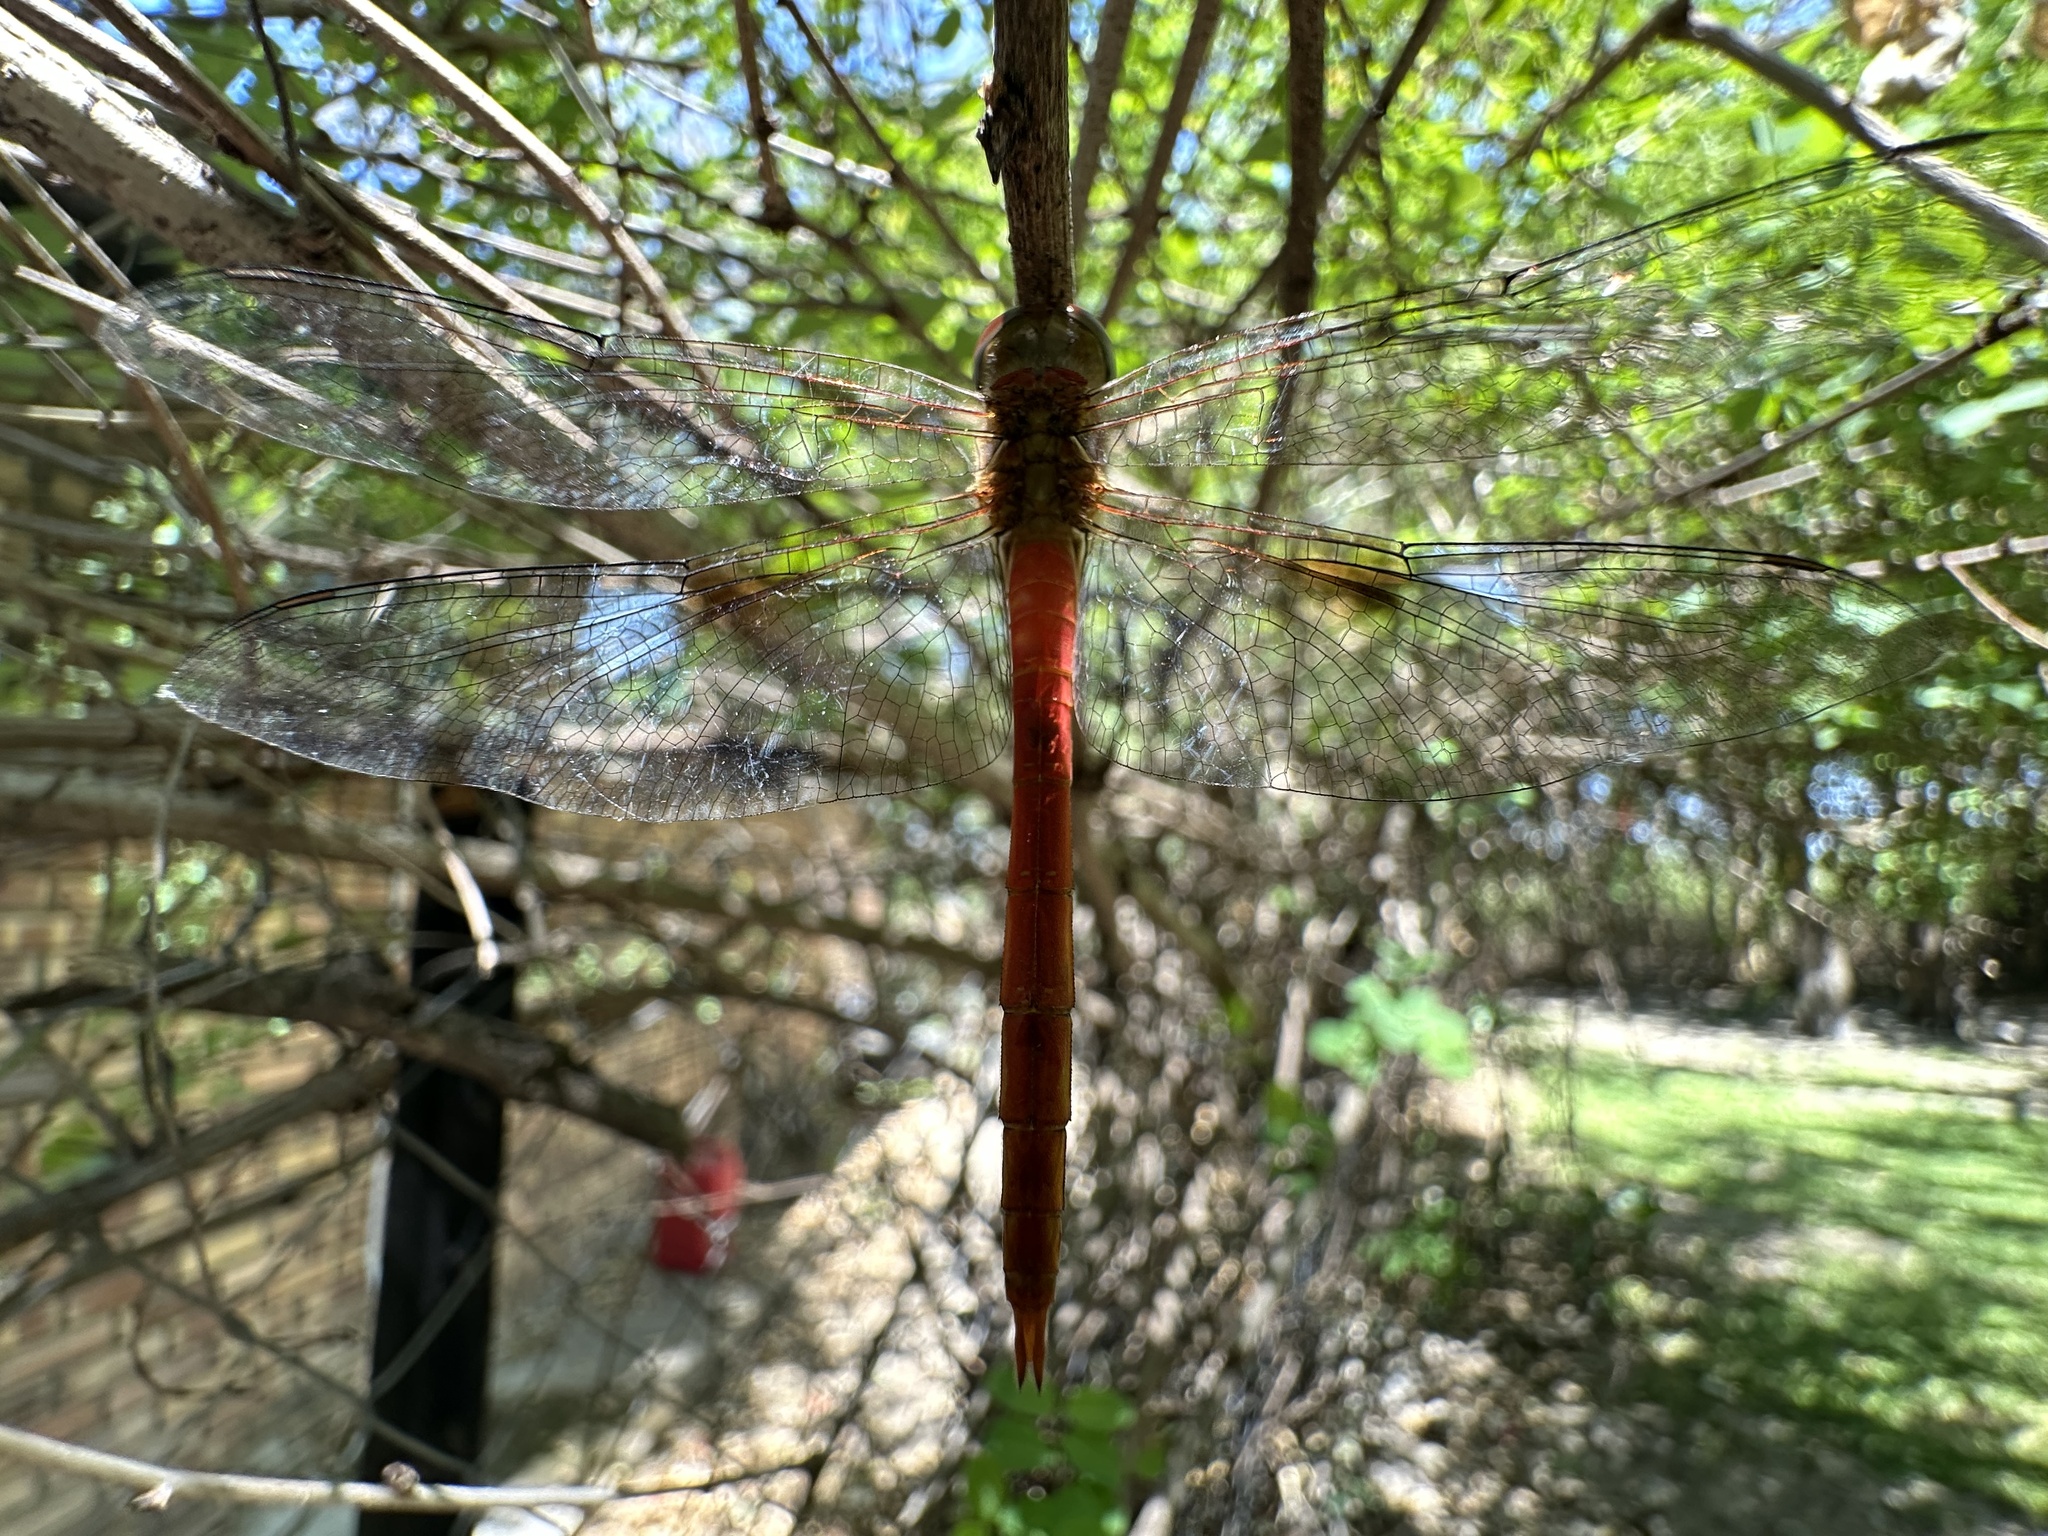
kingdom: Animalia
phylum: Arthropoda
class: Insecta
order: Odonata
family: Libellulidae
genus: Tholymis
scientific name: Tholymis tillarga
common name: Coral-tailed cloud wing
